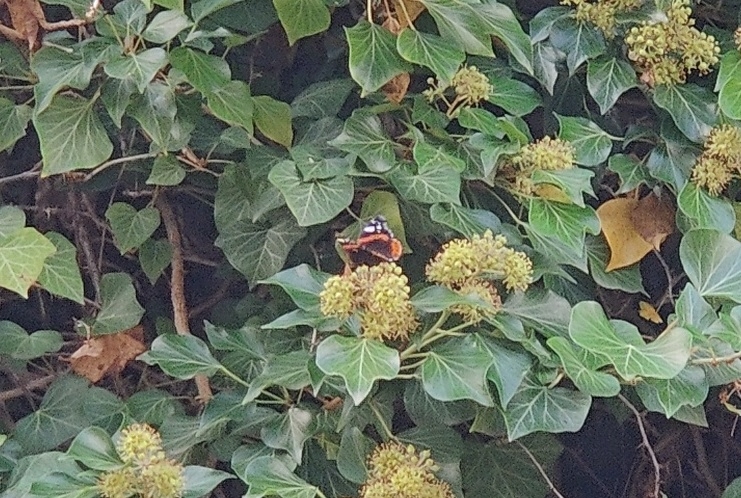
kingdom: Animalia
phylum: Arthropoda
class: Insecta
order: Lepidoptera
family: Nymphalidae
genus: Vanessa
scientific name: Vanessa atalanta
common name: Red admiral
